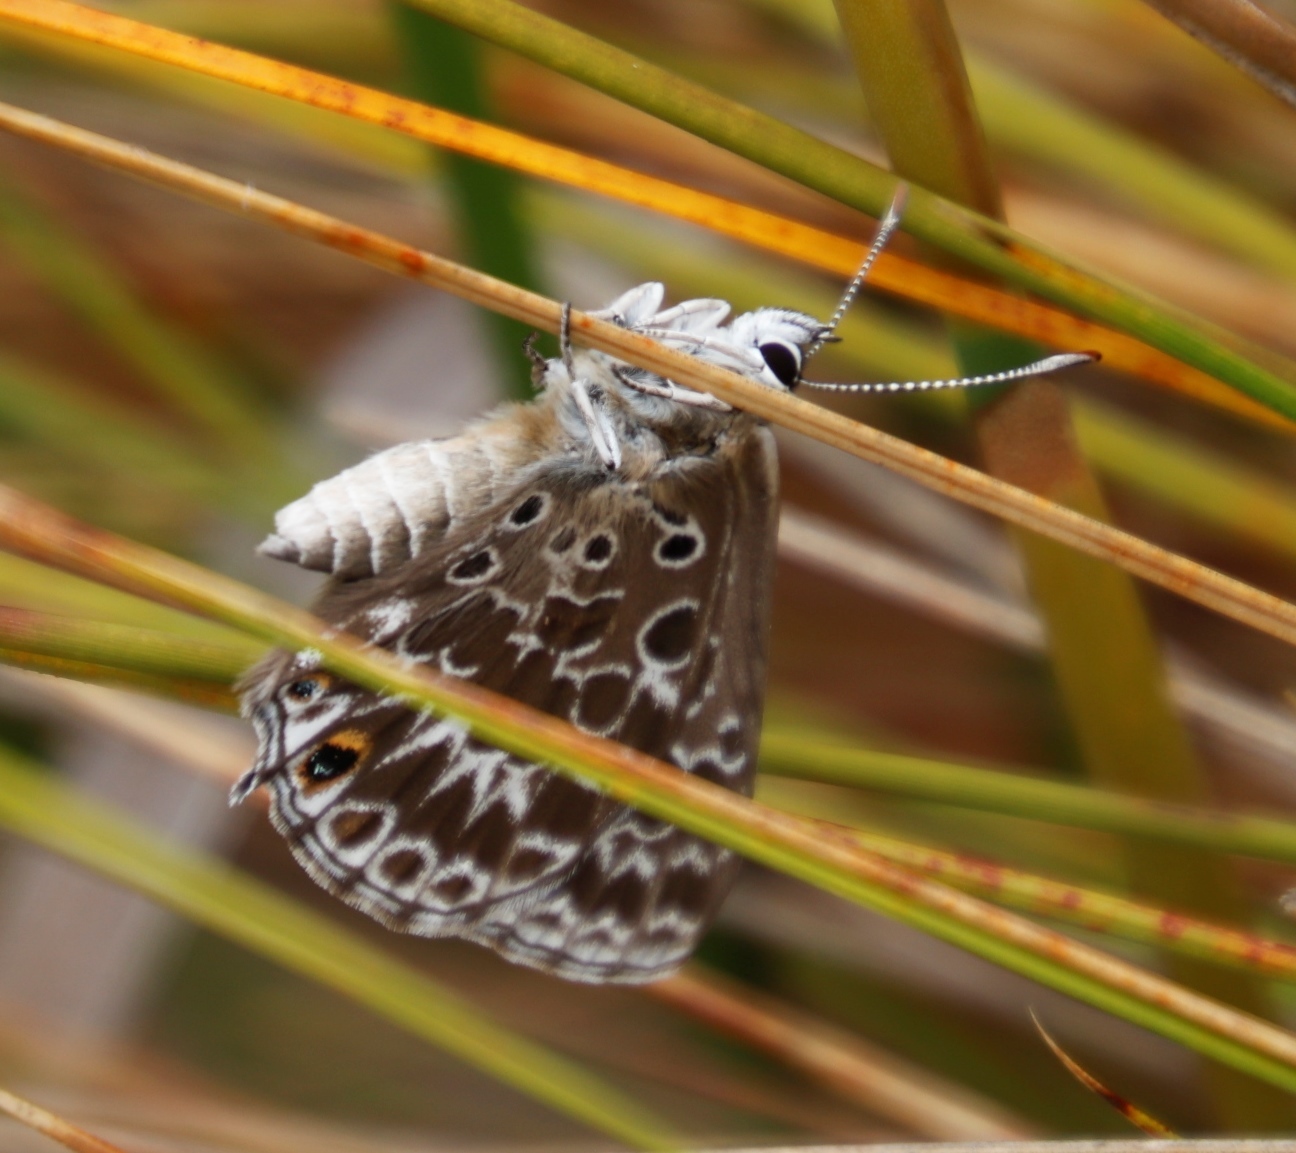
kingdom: Animalia
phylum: Arthropoda
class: Insecta
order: Lepidoptera
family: Lycaenidae
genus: Lepidochrysops
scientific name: Lepidochrysops trimeni
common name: Trimen's blue
